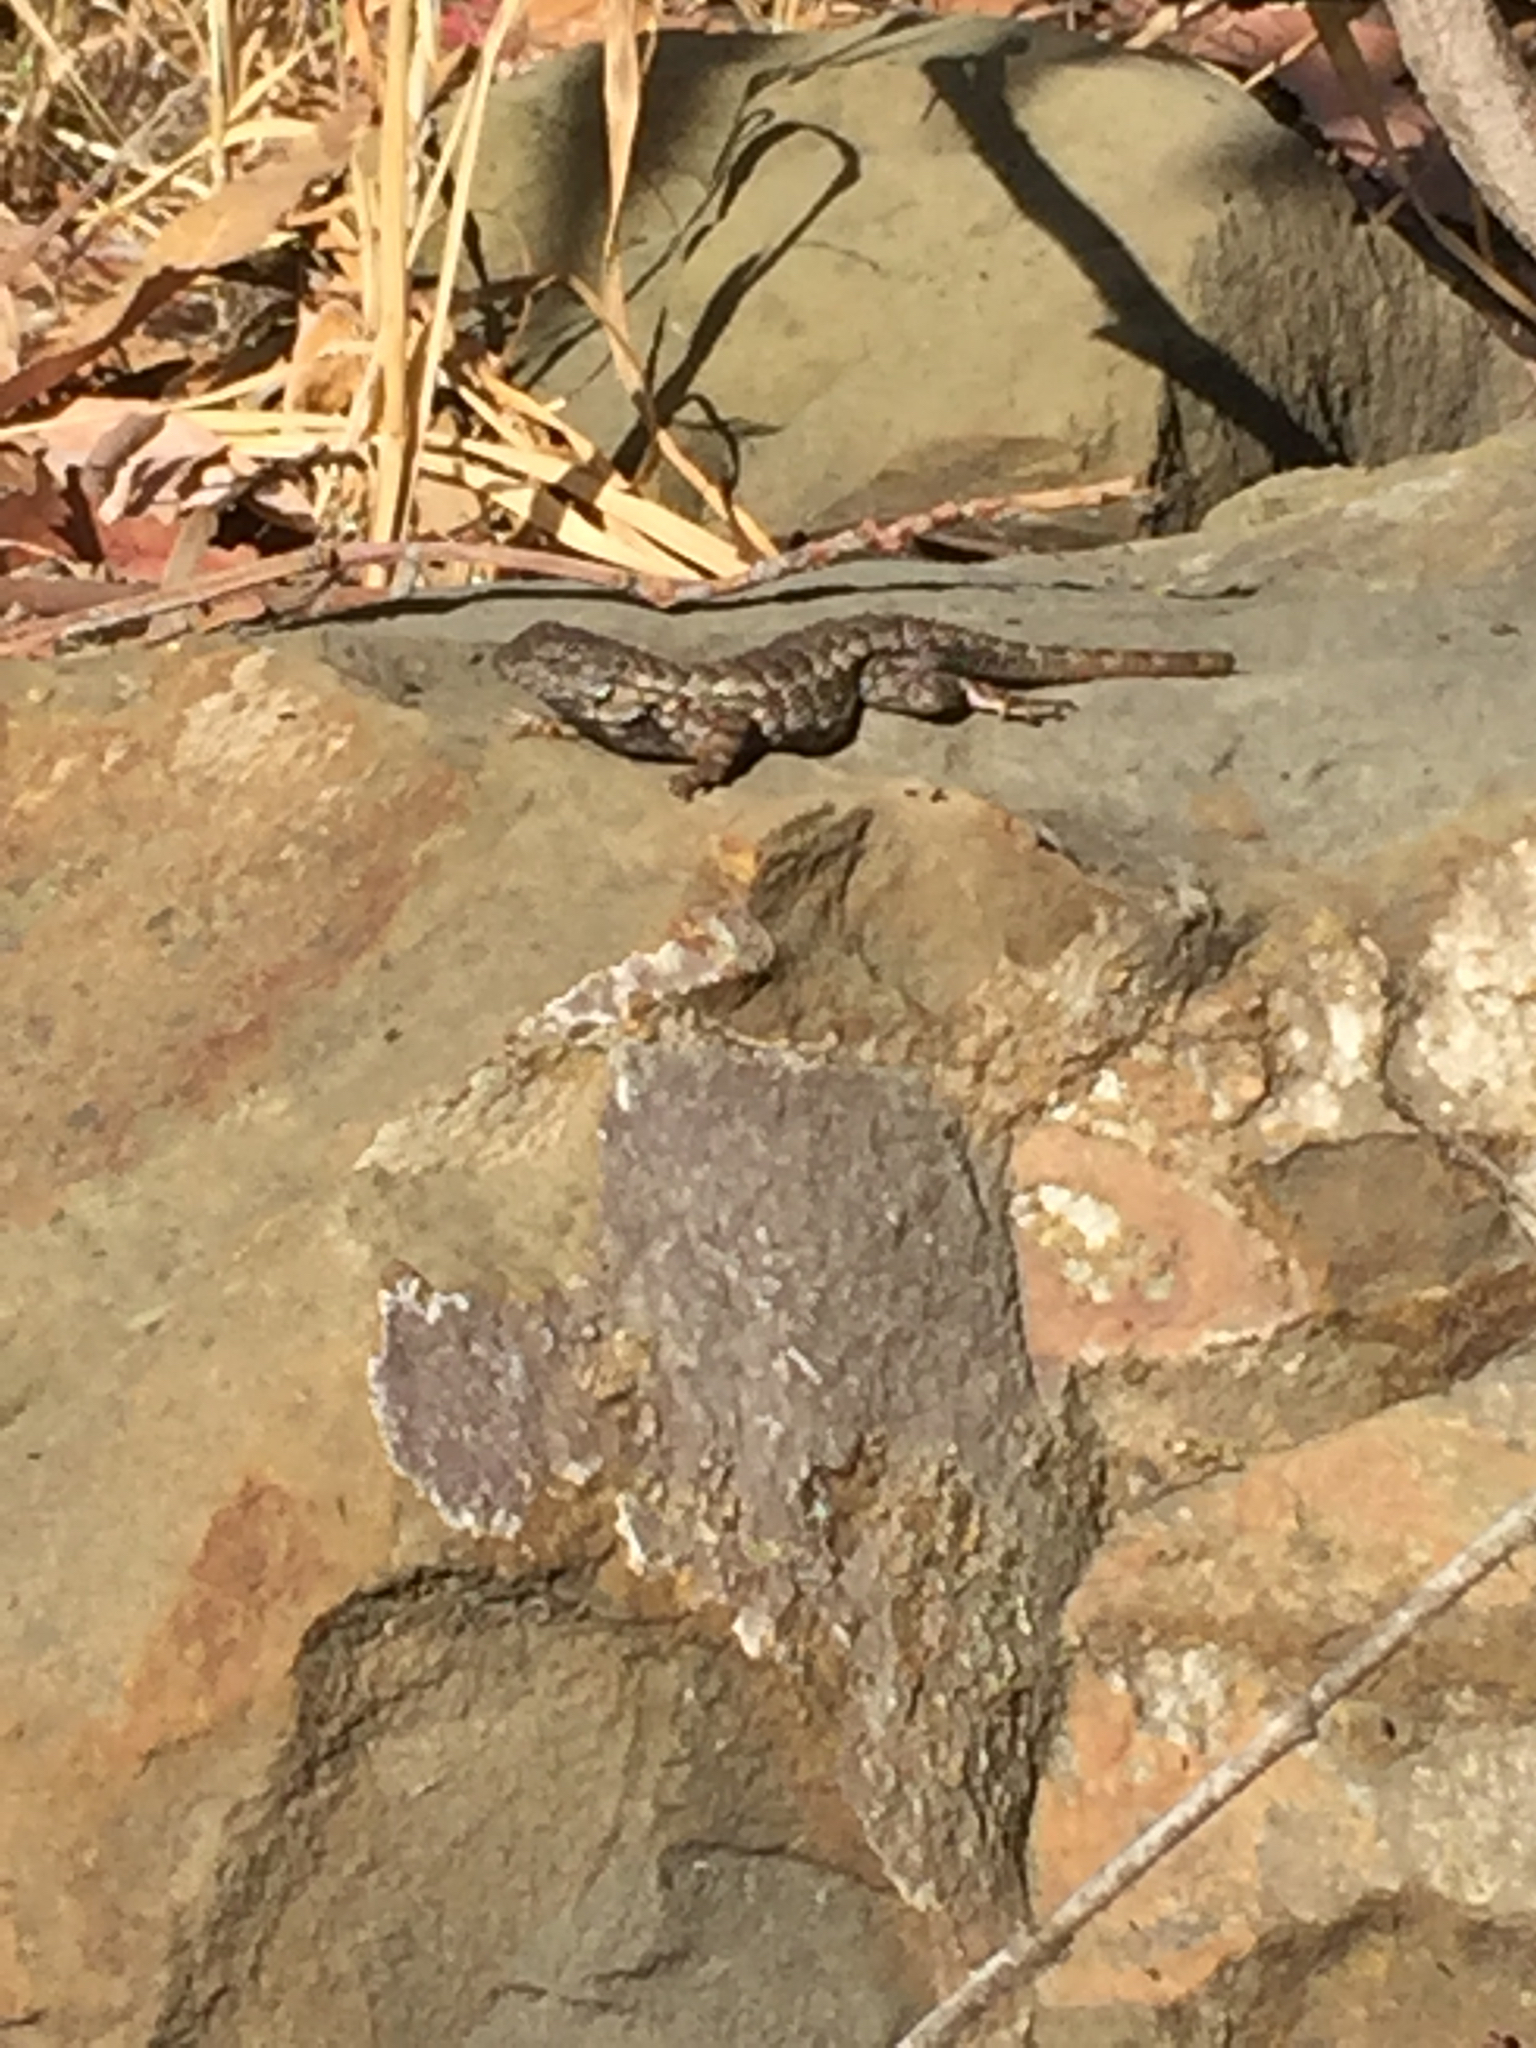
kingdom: Animalia
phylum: Chordata
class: Squamata
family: Phrynosomatidae
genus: Sceloporus
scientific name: Sceloporus occidentalis
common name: Western fence lizard
